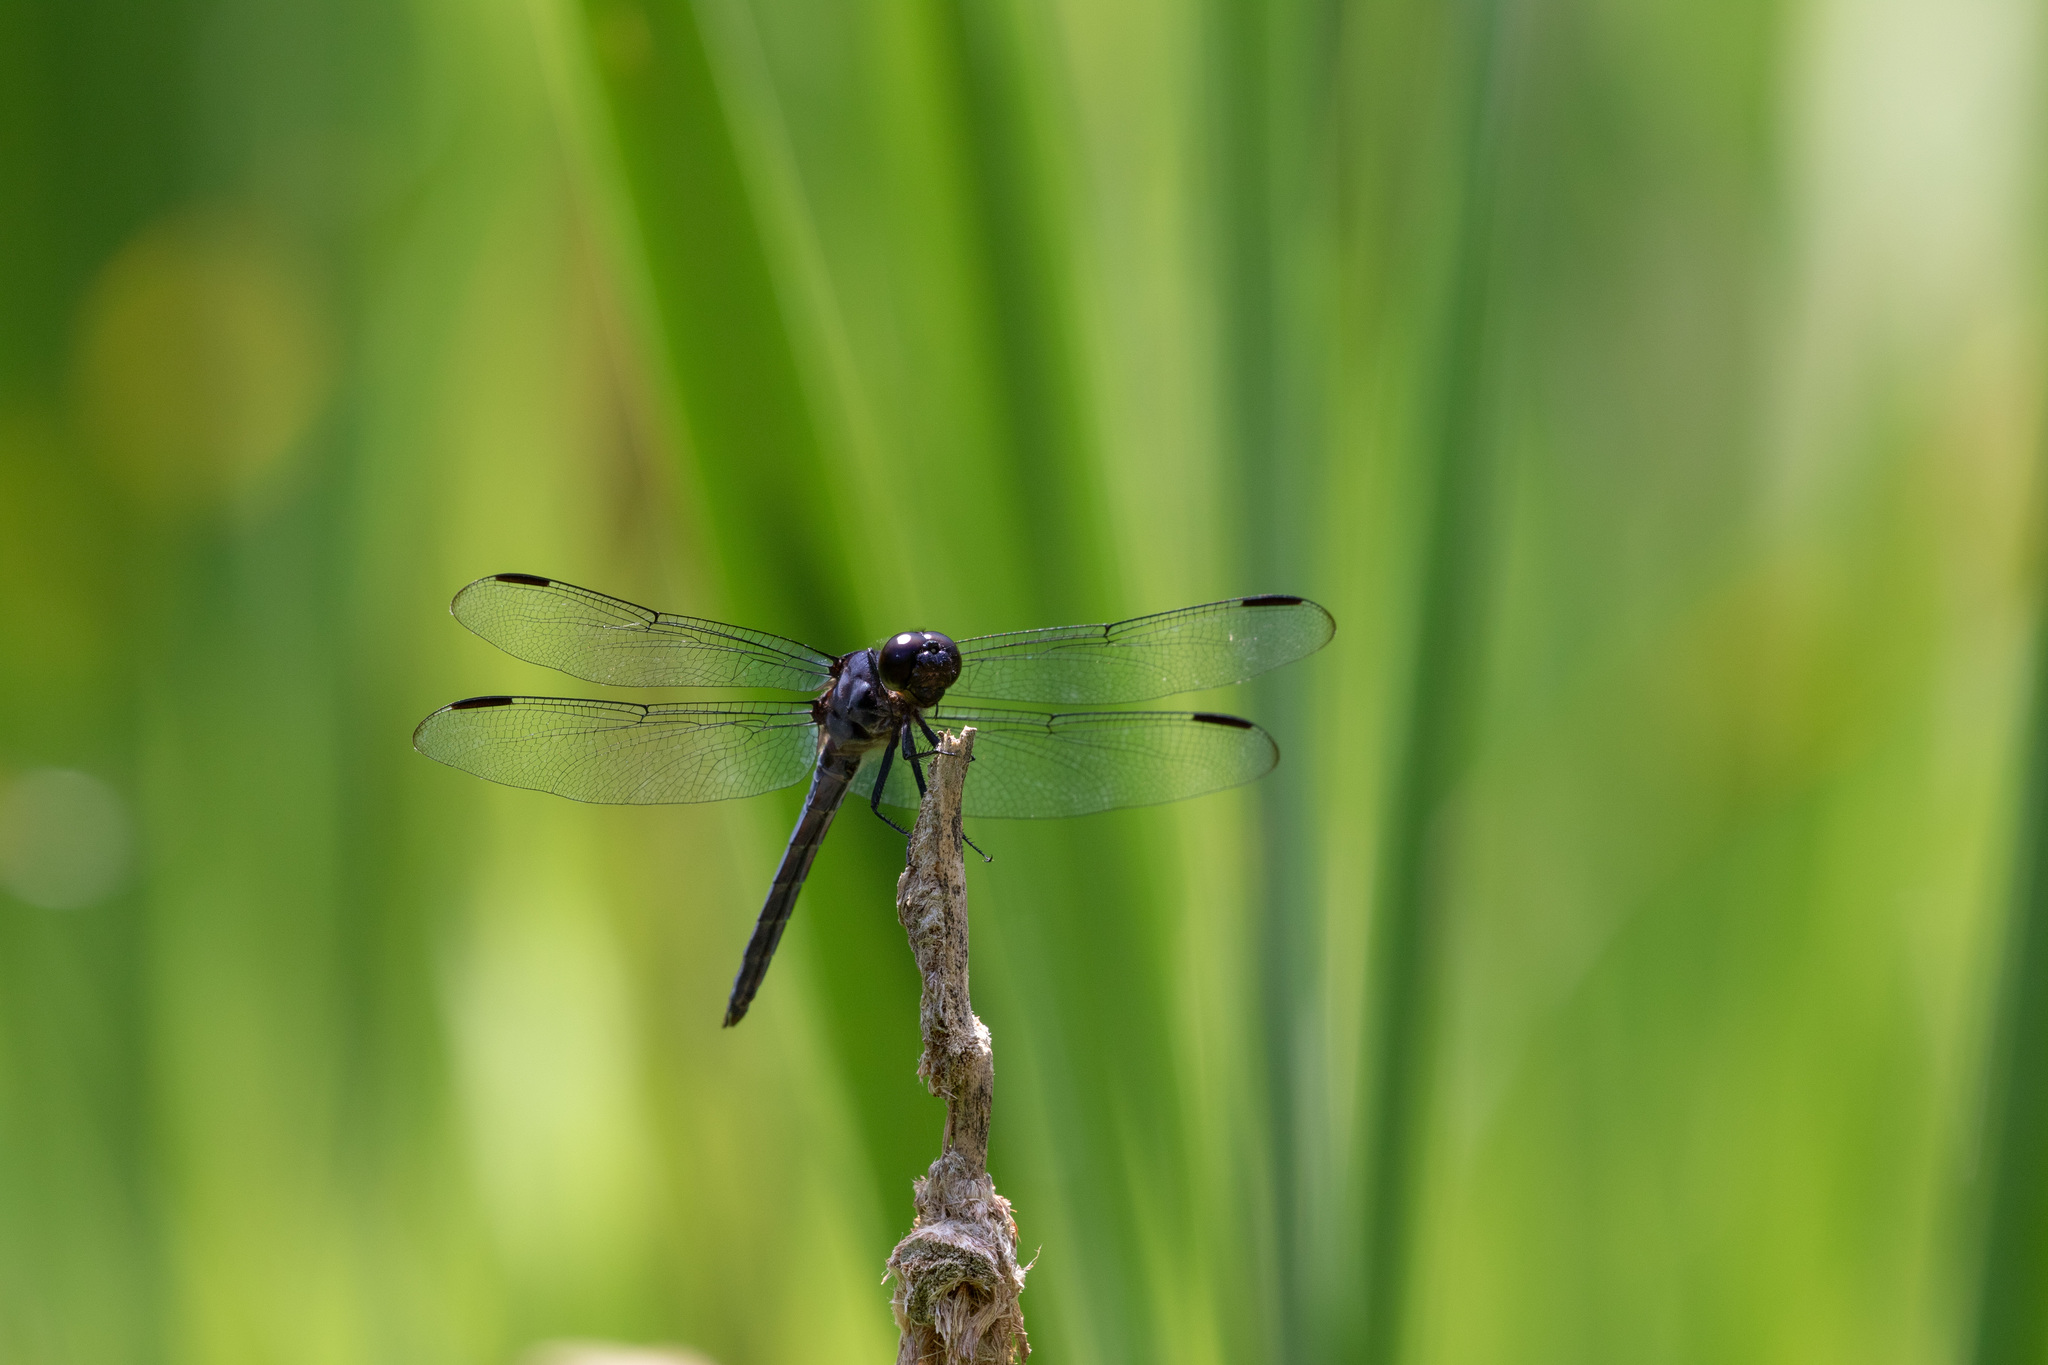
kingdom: Animalia
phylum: Arthropoda
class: Insecta
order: Odonata
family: Libellulidae
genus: Libellula
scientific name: Libellula incesta
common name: Slaty skimmer
